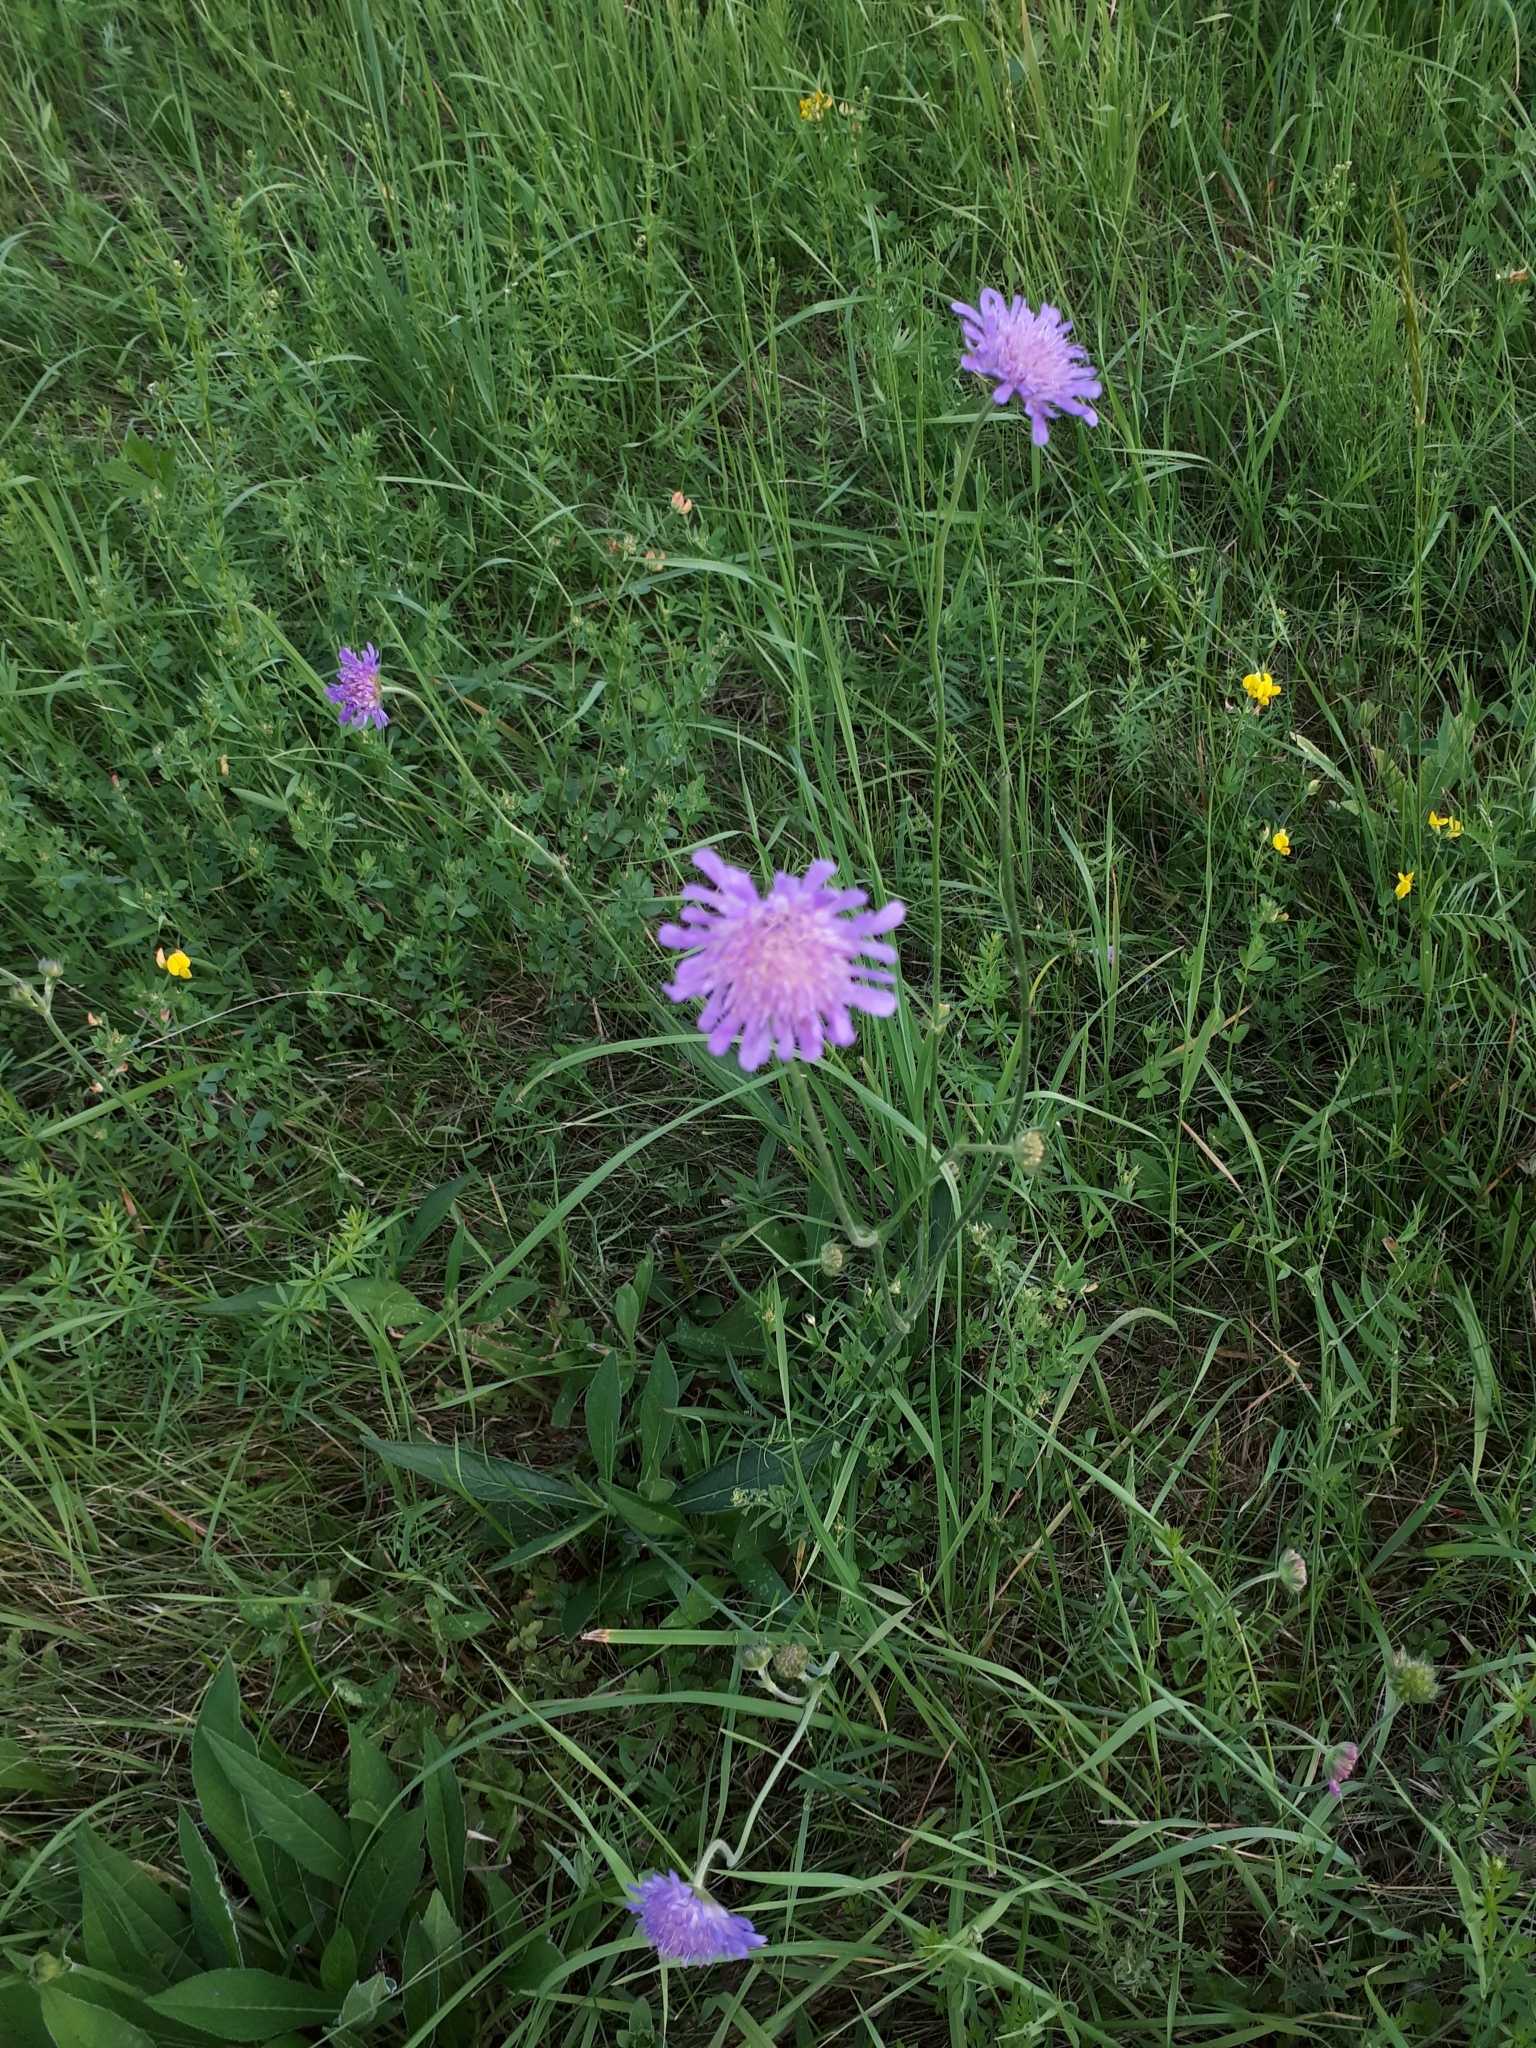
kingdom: Plantae
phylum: Tracheophyta
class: Magnoliopsida
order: Dipsacales
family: Caprifoliaceae
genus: Knautia
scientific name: Knautia arvensis
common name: Field scabiosa
